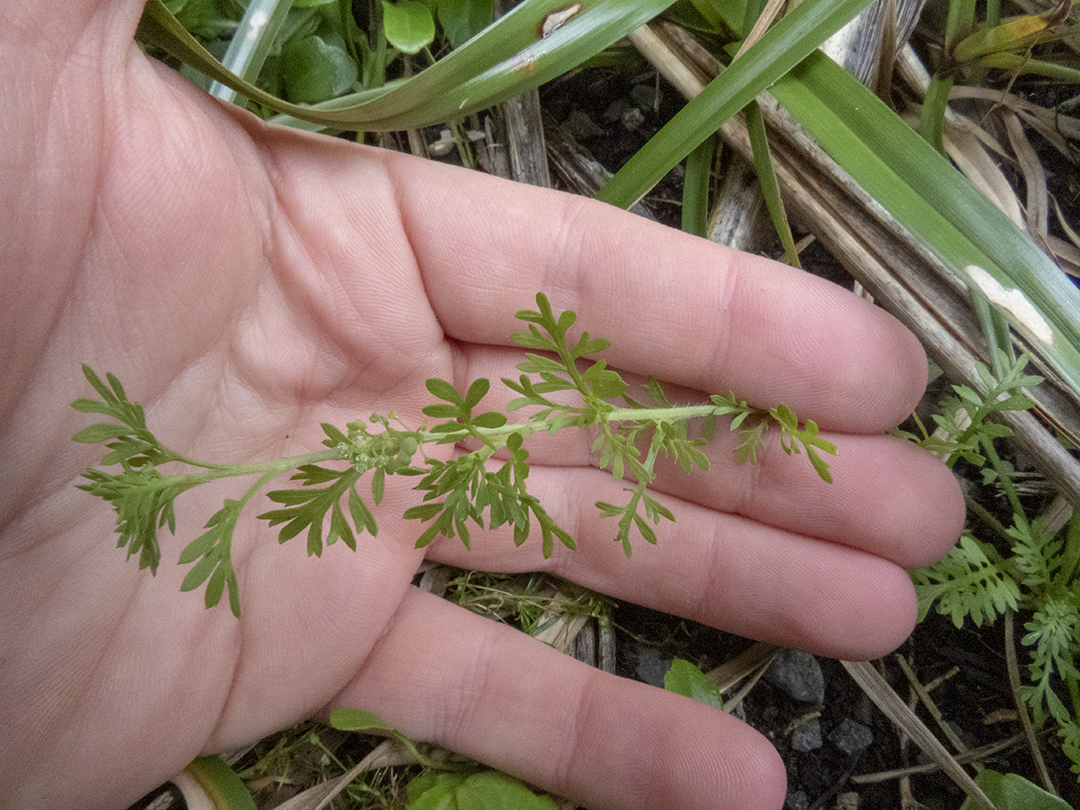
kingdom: Plantae
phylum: Tracheophyta
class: Magnoliopsida
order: Brassicales
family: Brassicaceae
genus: Lepidium
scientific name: Lepidium didymum
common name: Lesser swinecress
